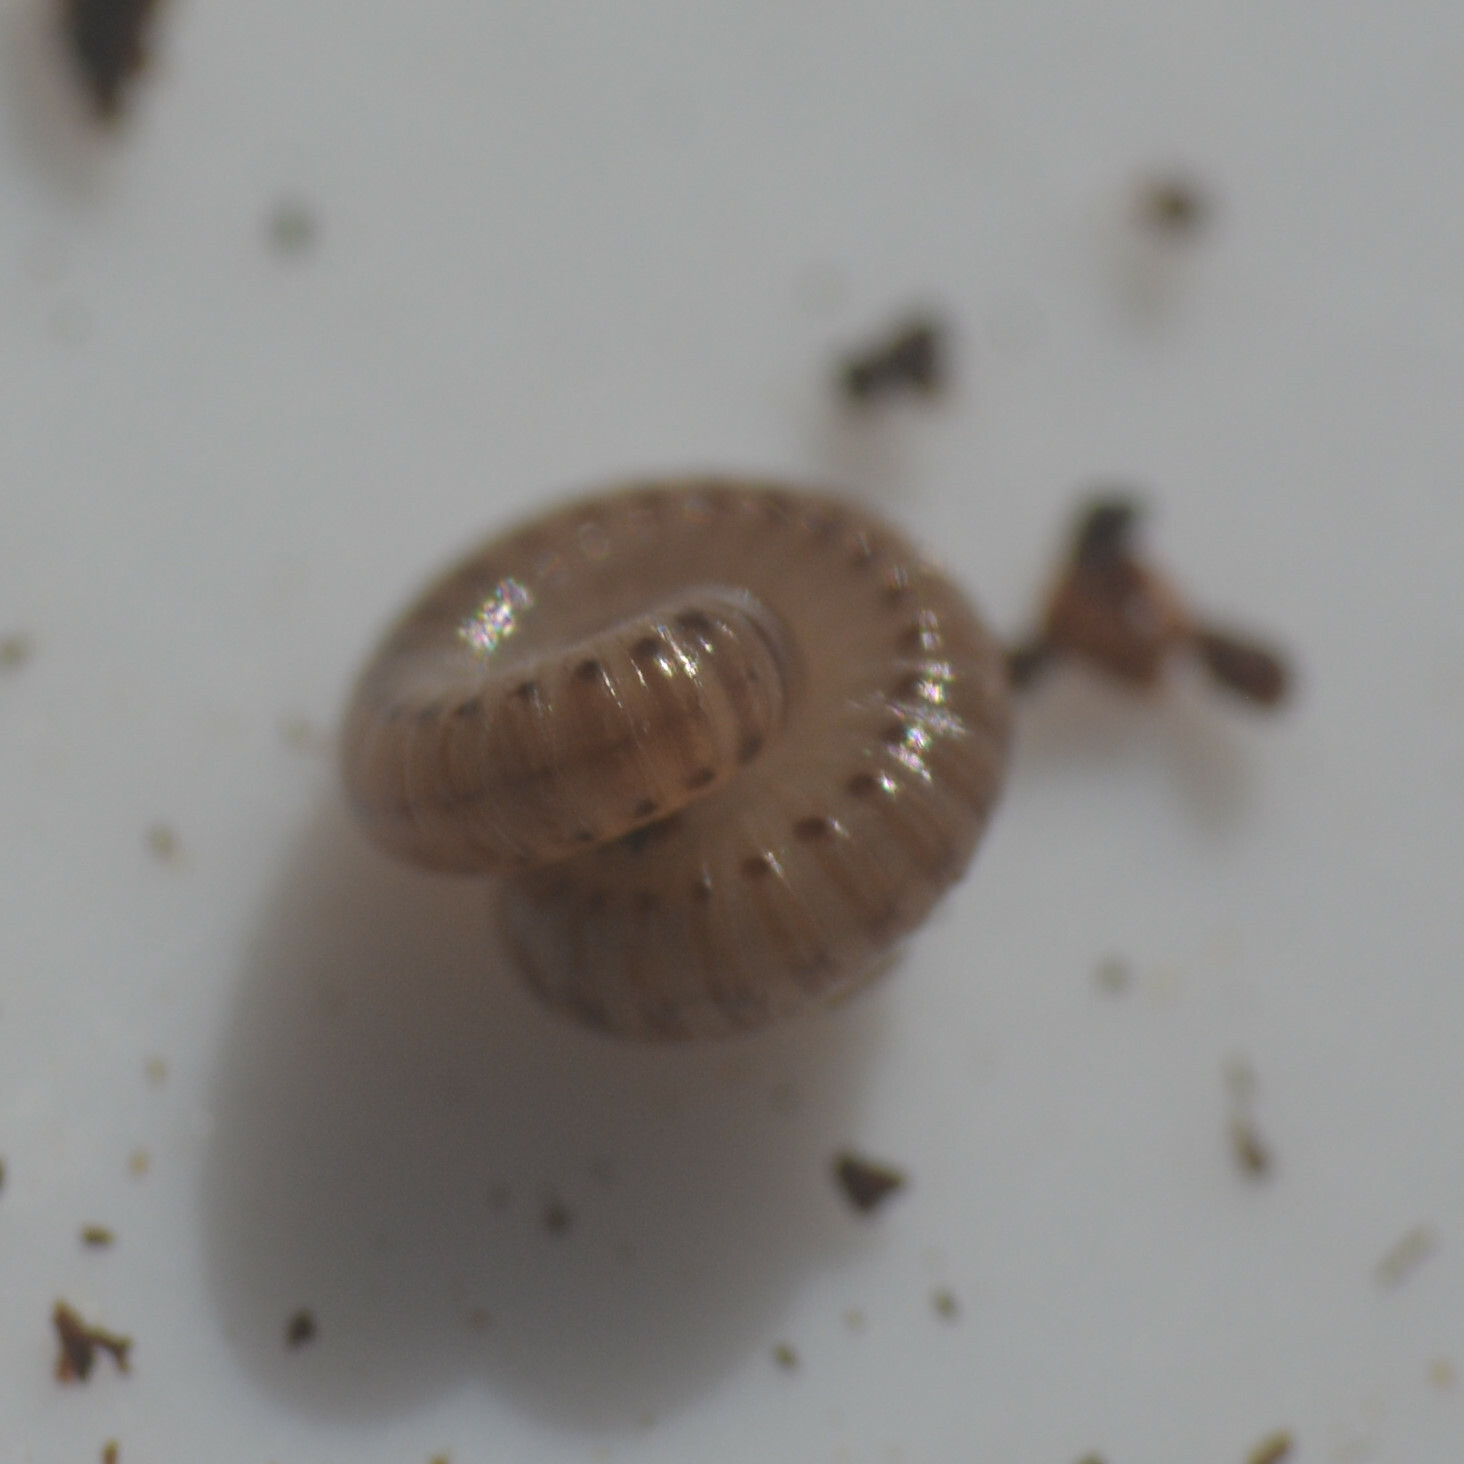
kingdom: Animalia
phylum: Arthropoda
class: Diplopoda
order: Julida
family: Julidae
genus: Cylindroiulus
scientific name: Cylindroiulus punctatus
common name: Blunt-tailed millipede
